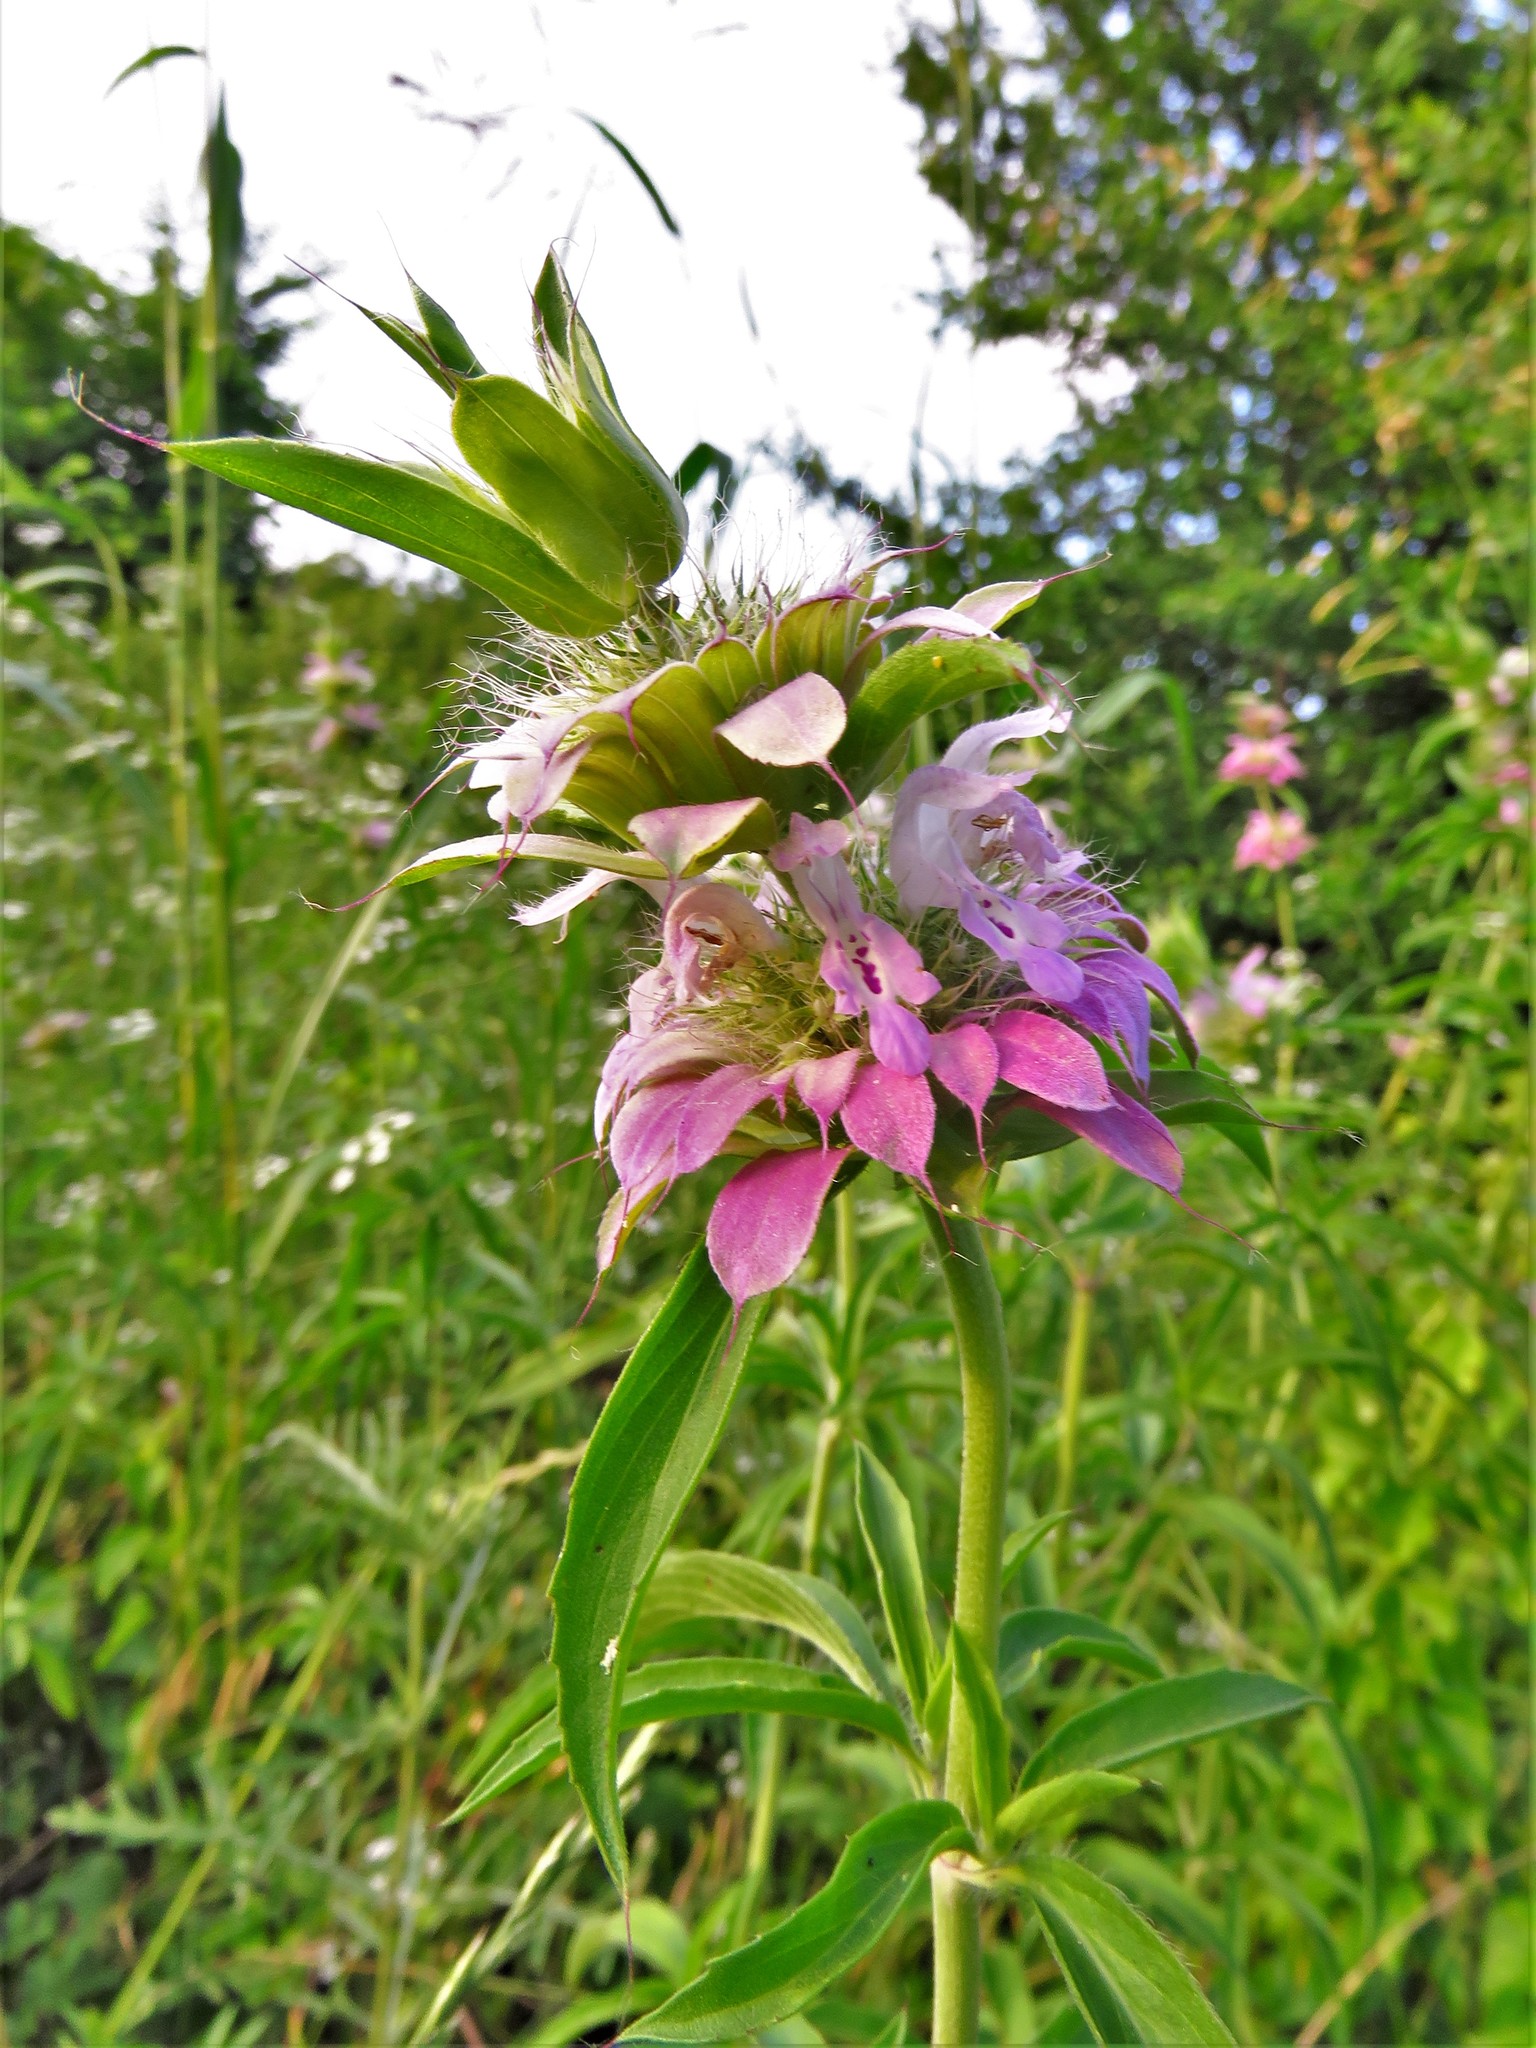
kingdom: Plantae
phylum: Tracheophyta
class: Magnoliopsida
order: Lamiales
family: Lamiaceae
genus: Monarda
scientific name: Monarda citriodora
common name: Lemon beebalm
